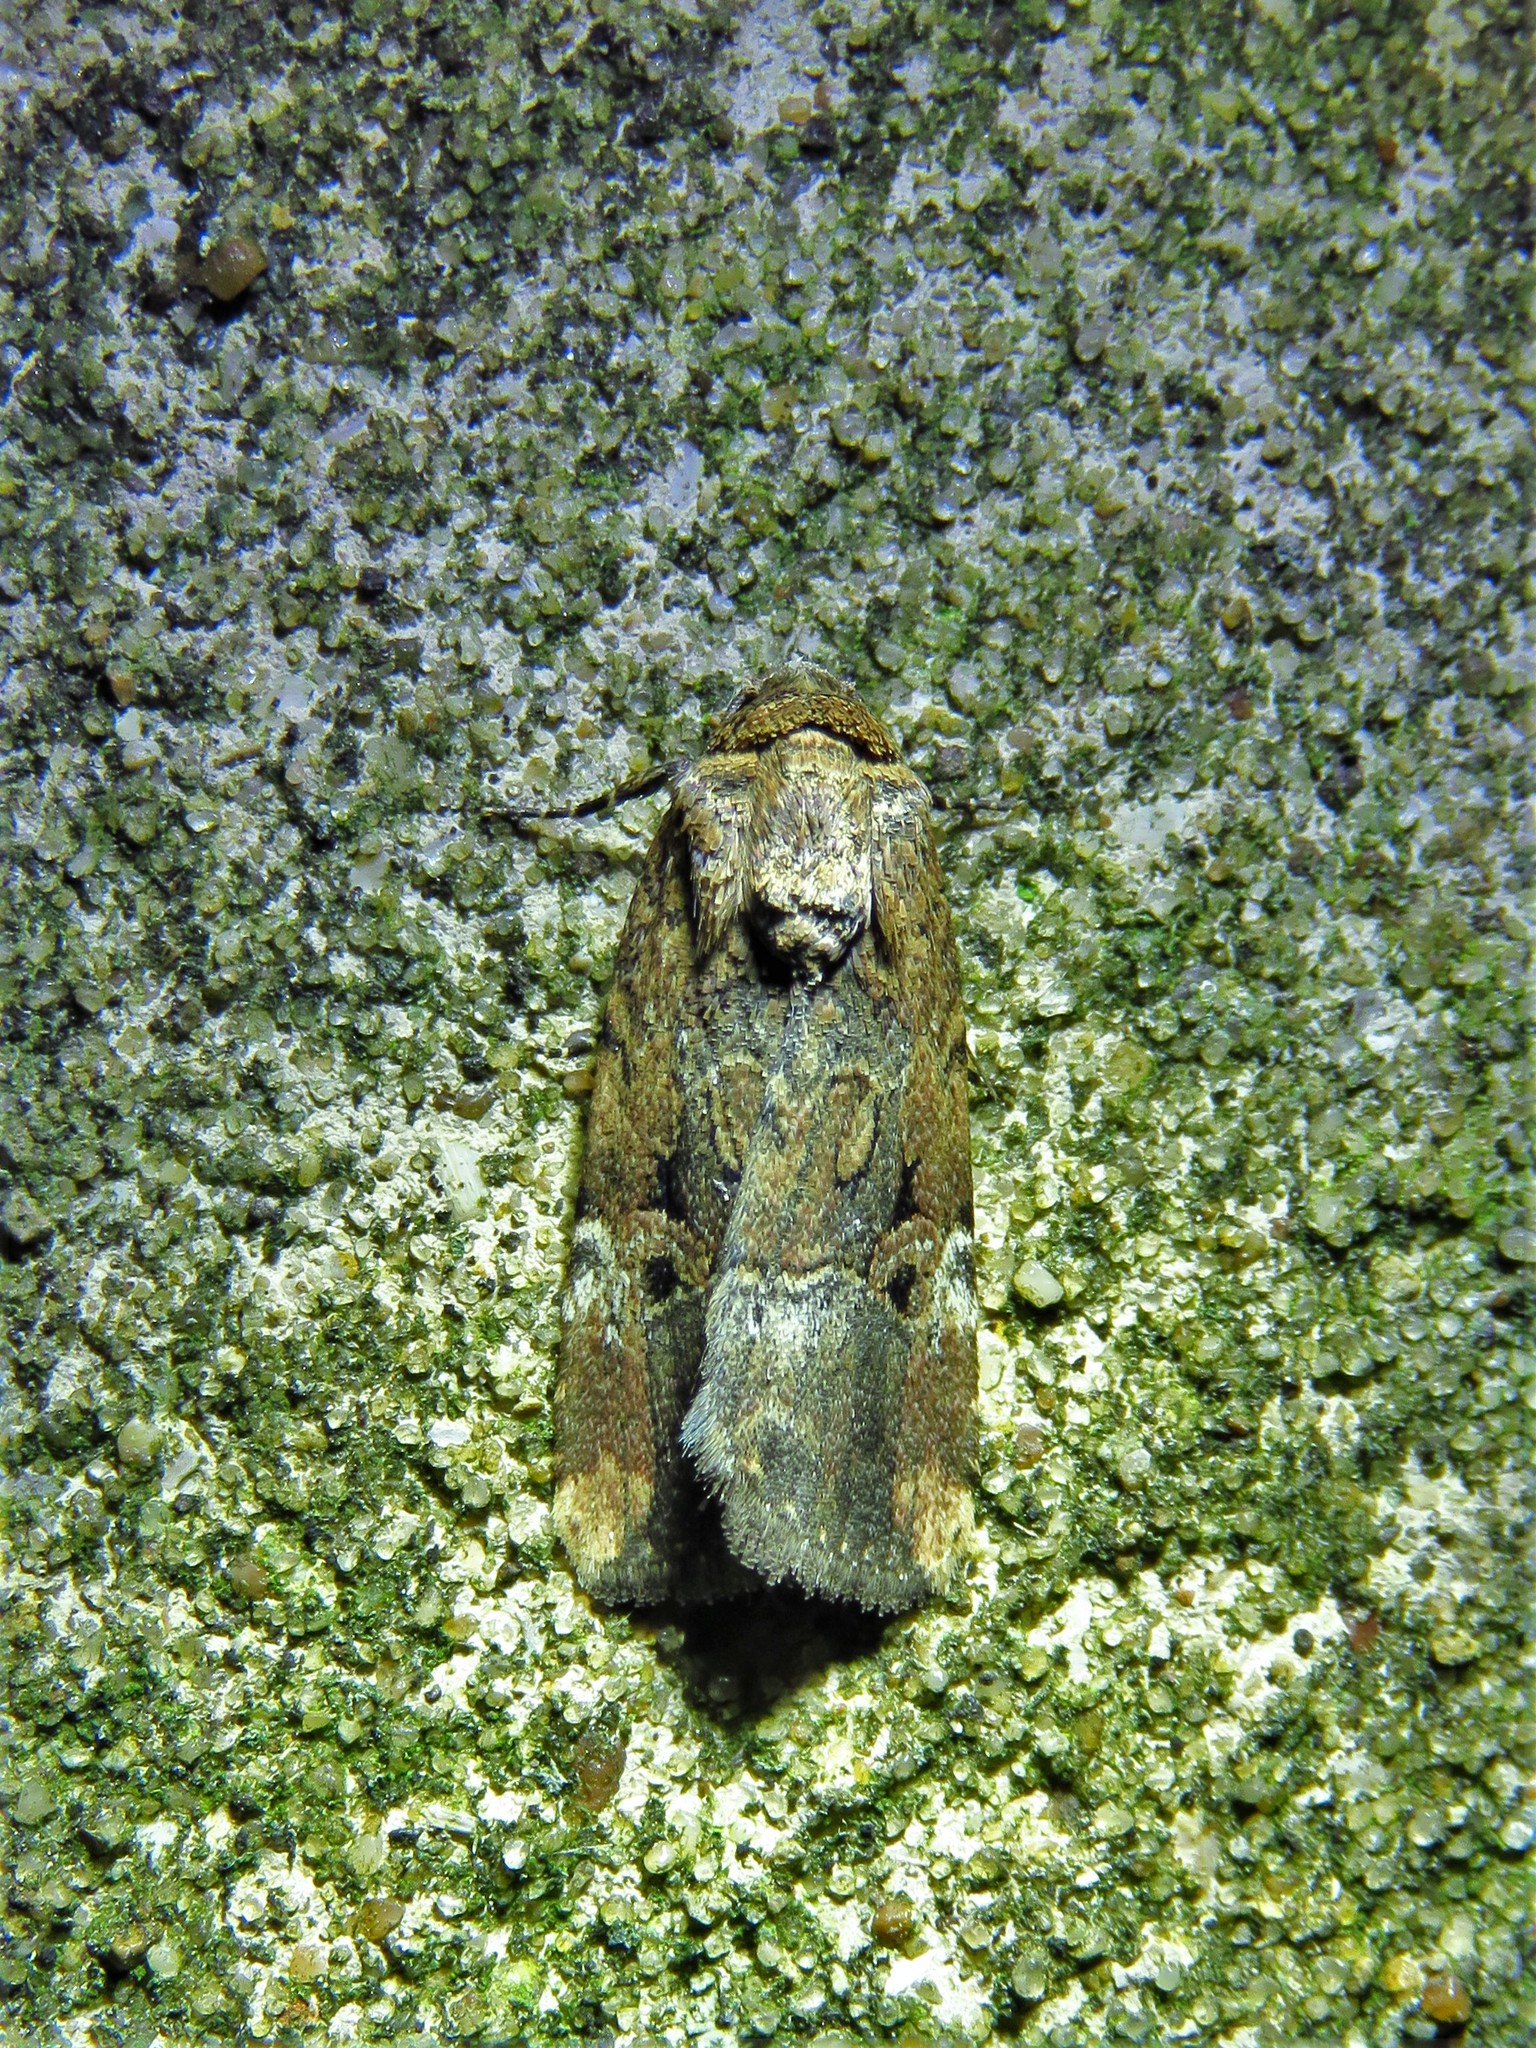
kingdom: Animalia
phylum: Arthropoda
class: Insecta
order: Lepidoptera
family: Noctuidae
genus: Elaphria
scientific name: Elaphria chalcedonia
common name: Chalcedony midget
